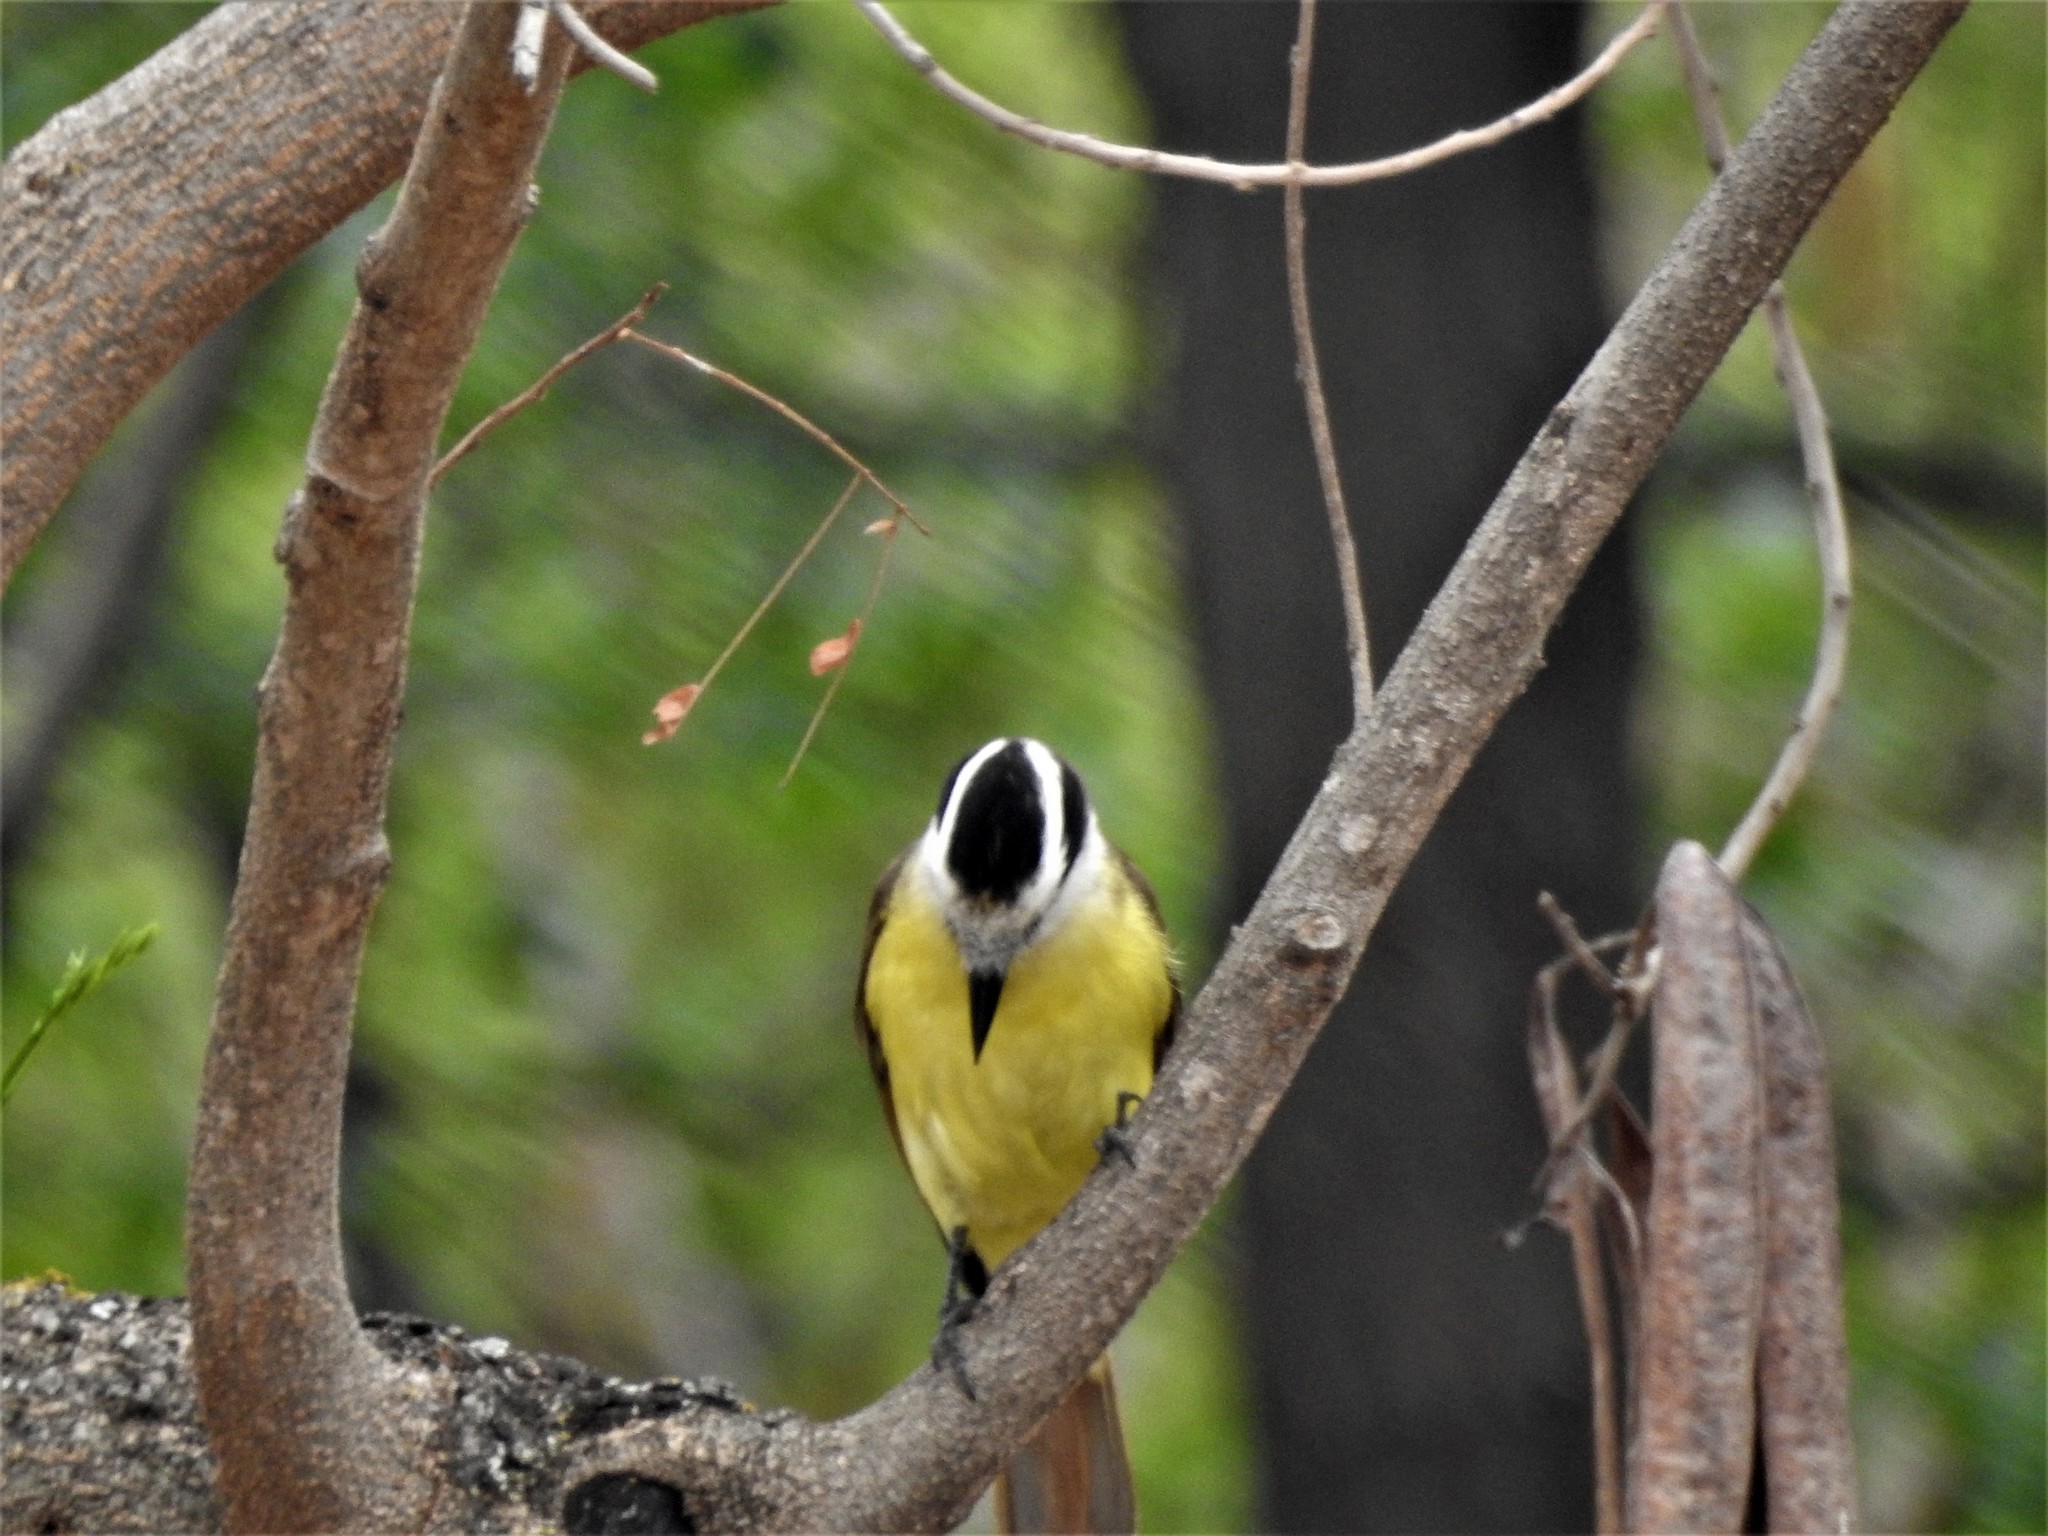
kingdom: Animalia
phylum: Chordata
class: Aves
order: Passeriformes
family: Tyrannidae
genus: Pitangus
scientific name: Pitangus sulphuratus
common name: Great kiskadee
